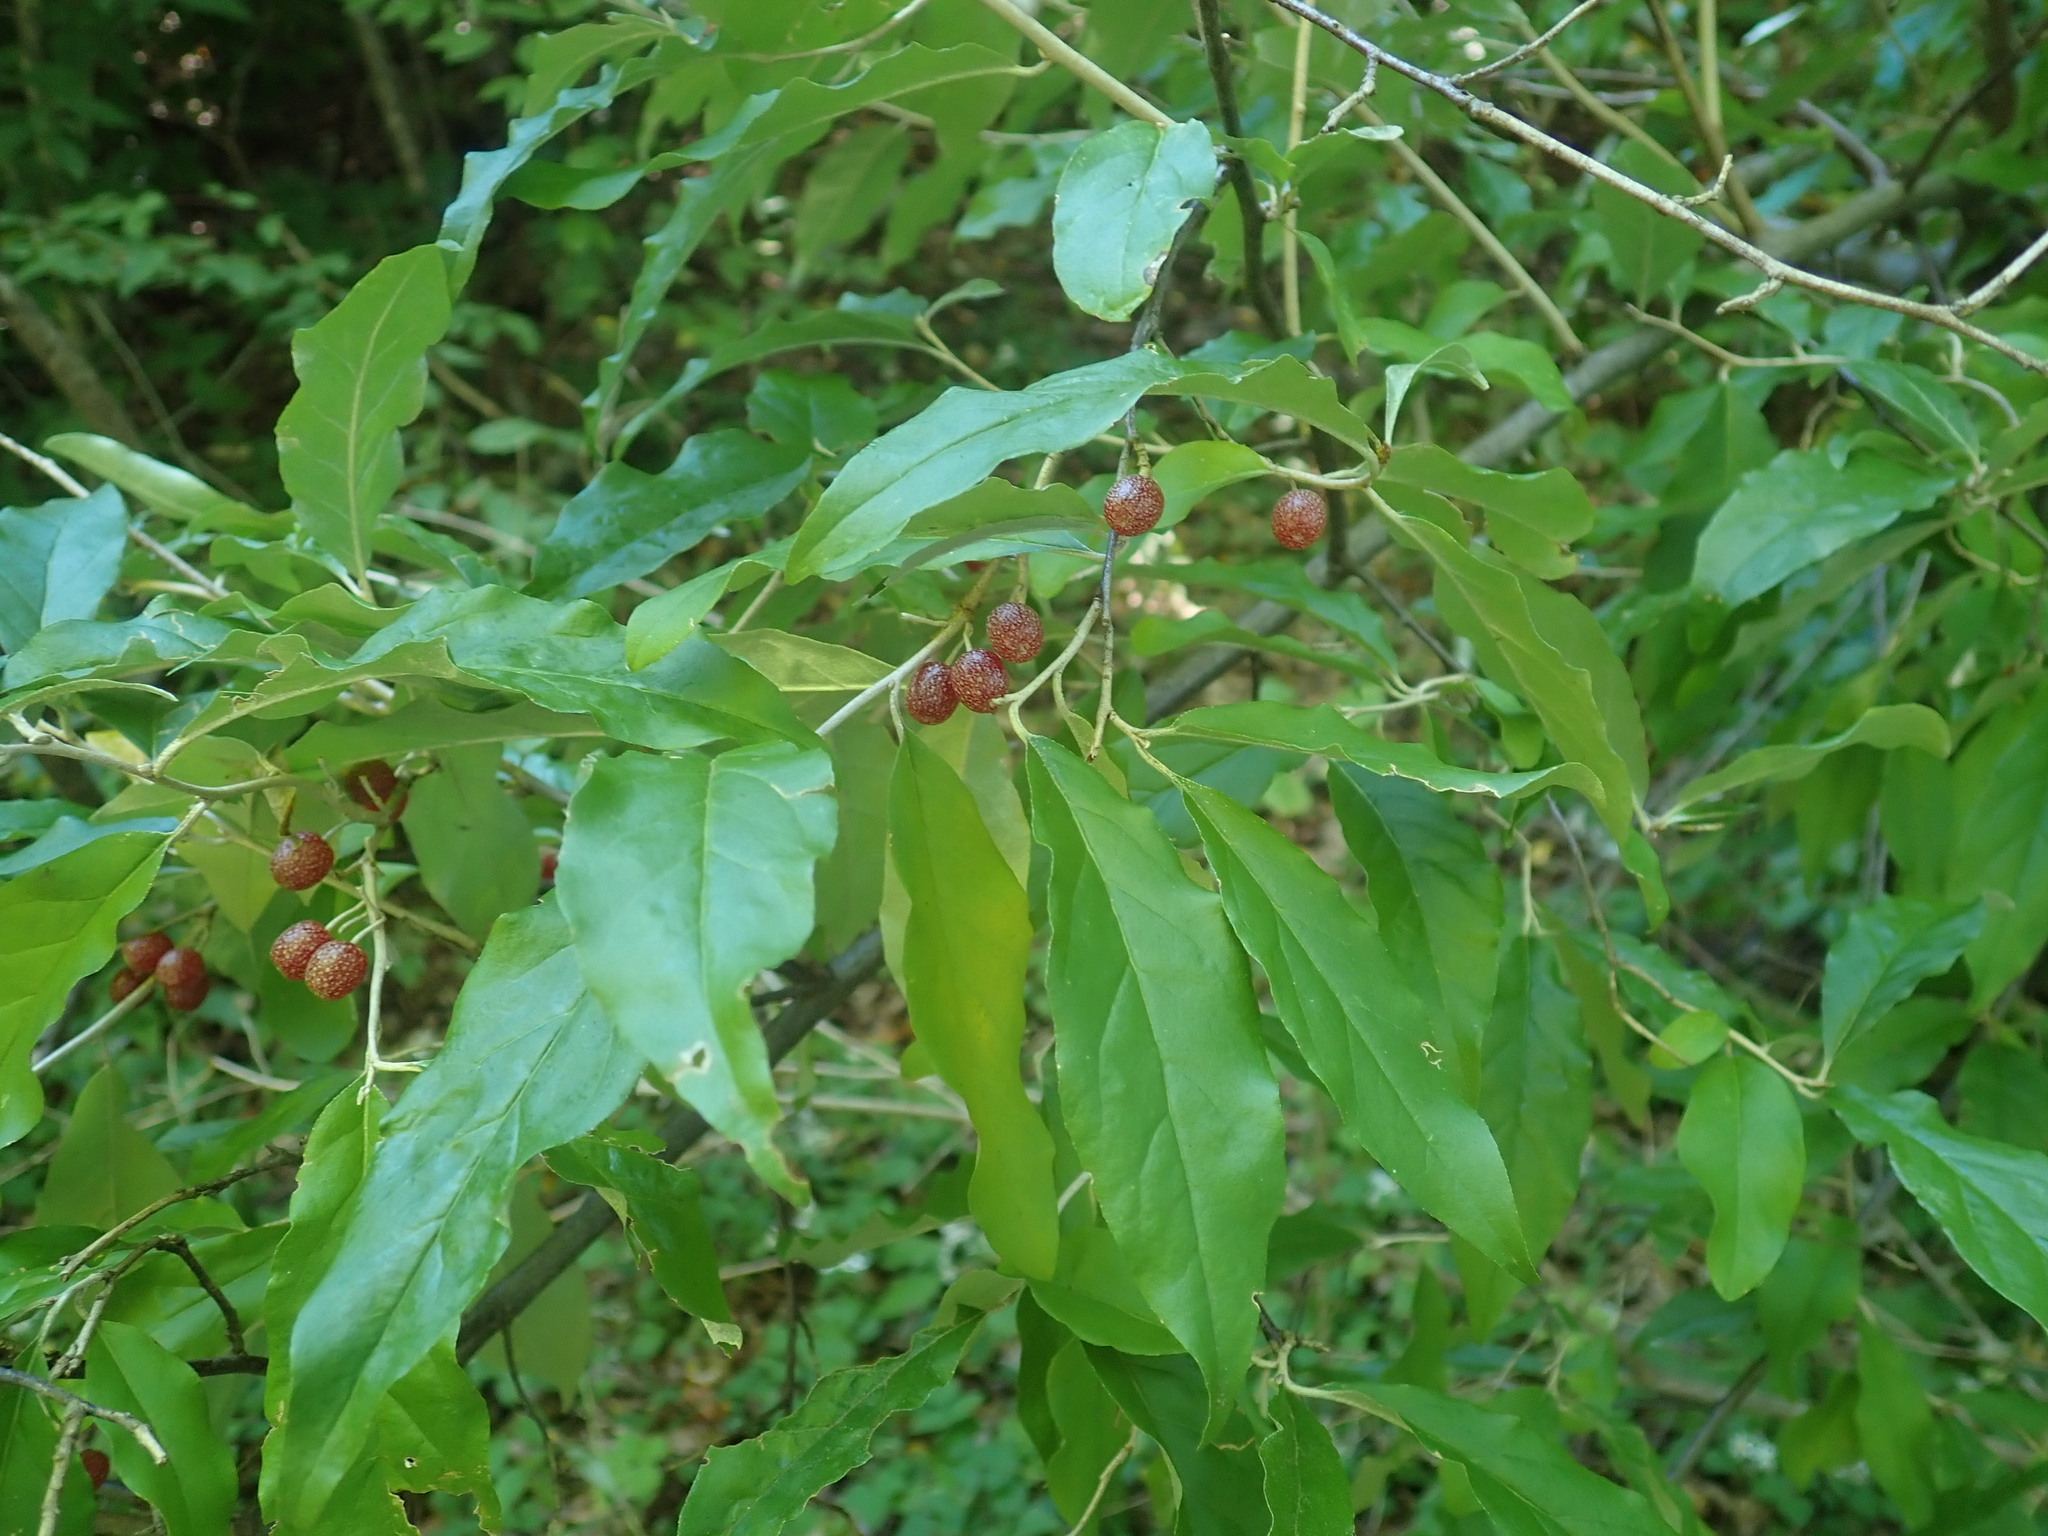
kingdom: Plantae
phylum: Tracheophyta
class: Magnoliopsida
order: Rosales
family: Elaeagnaceae
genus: Elaeagnus
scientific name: Elaeagnus umbellata
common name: Autumn olive
